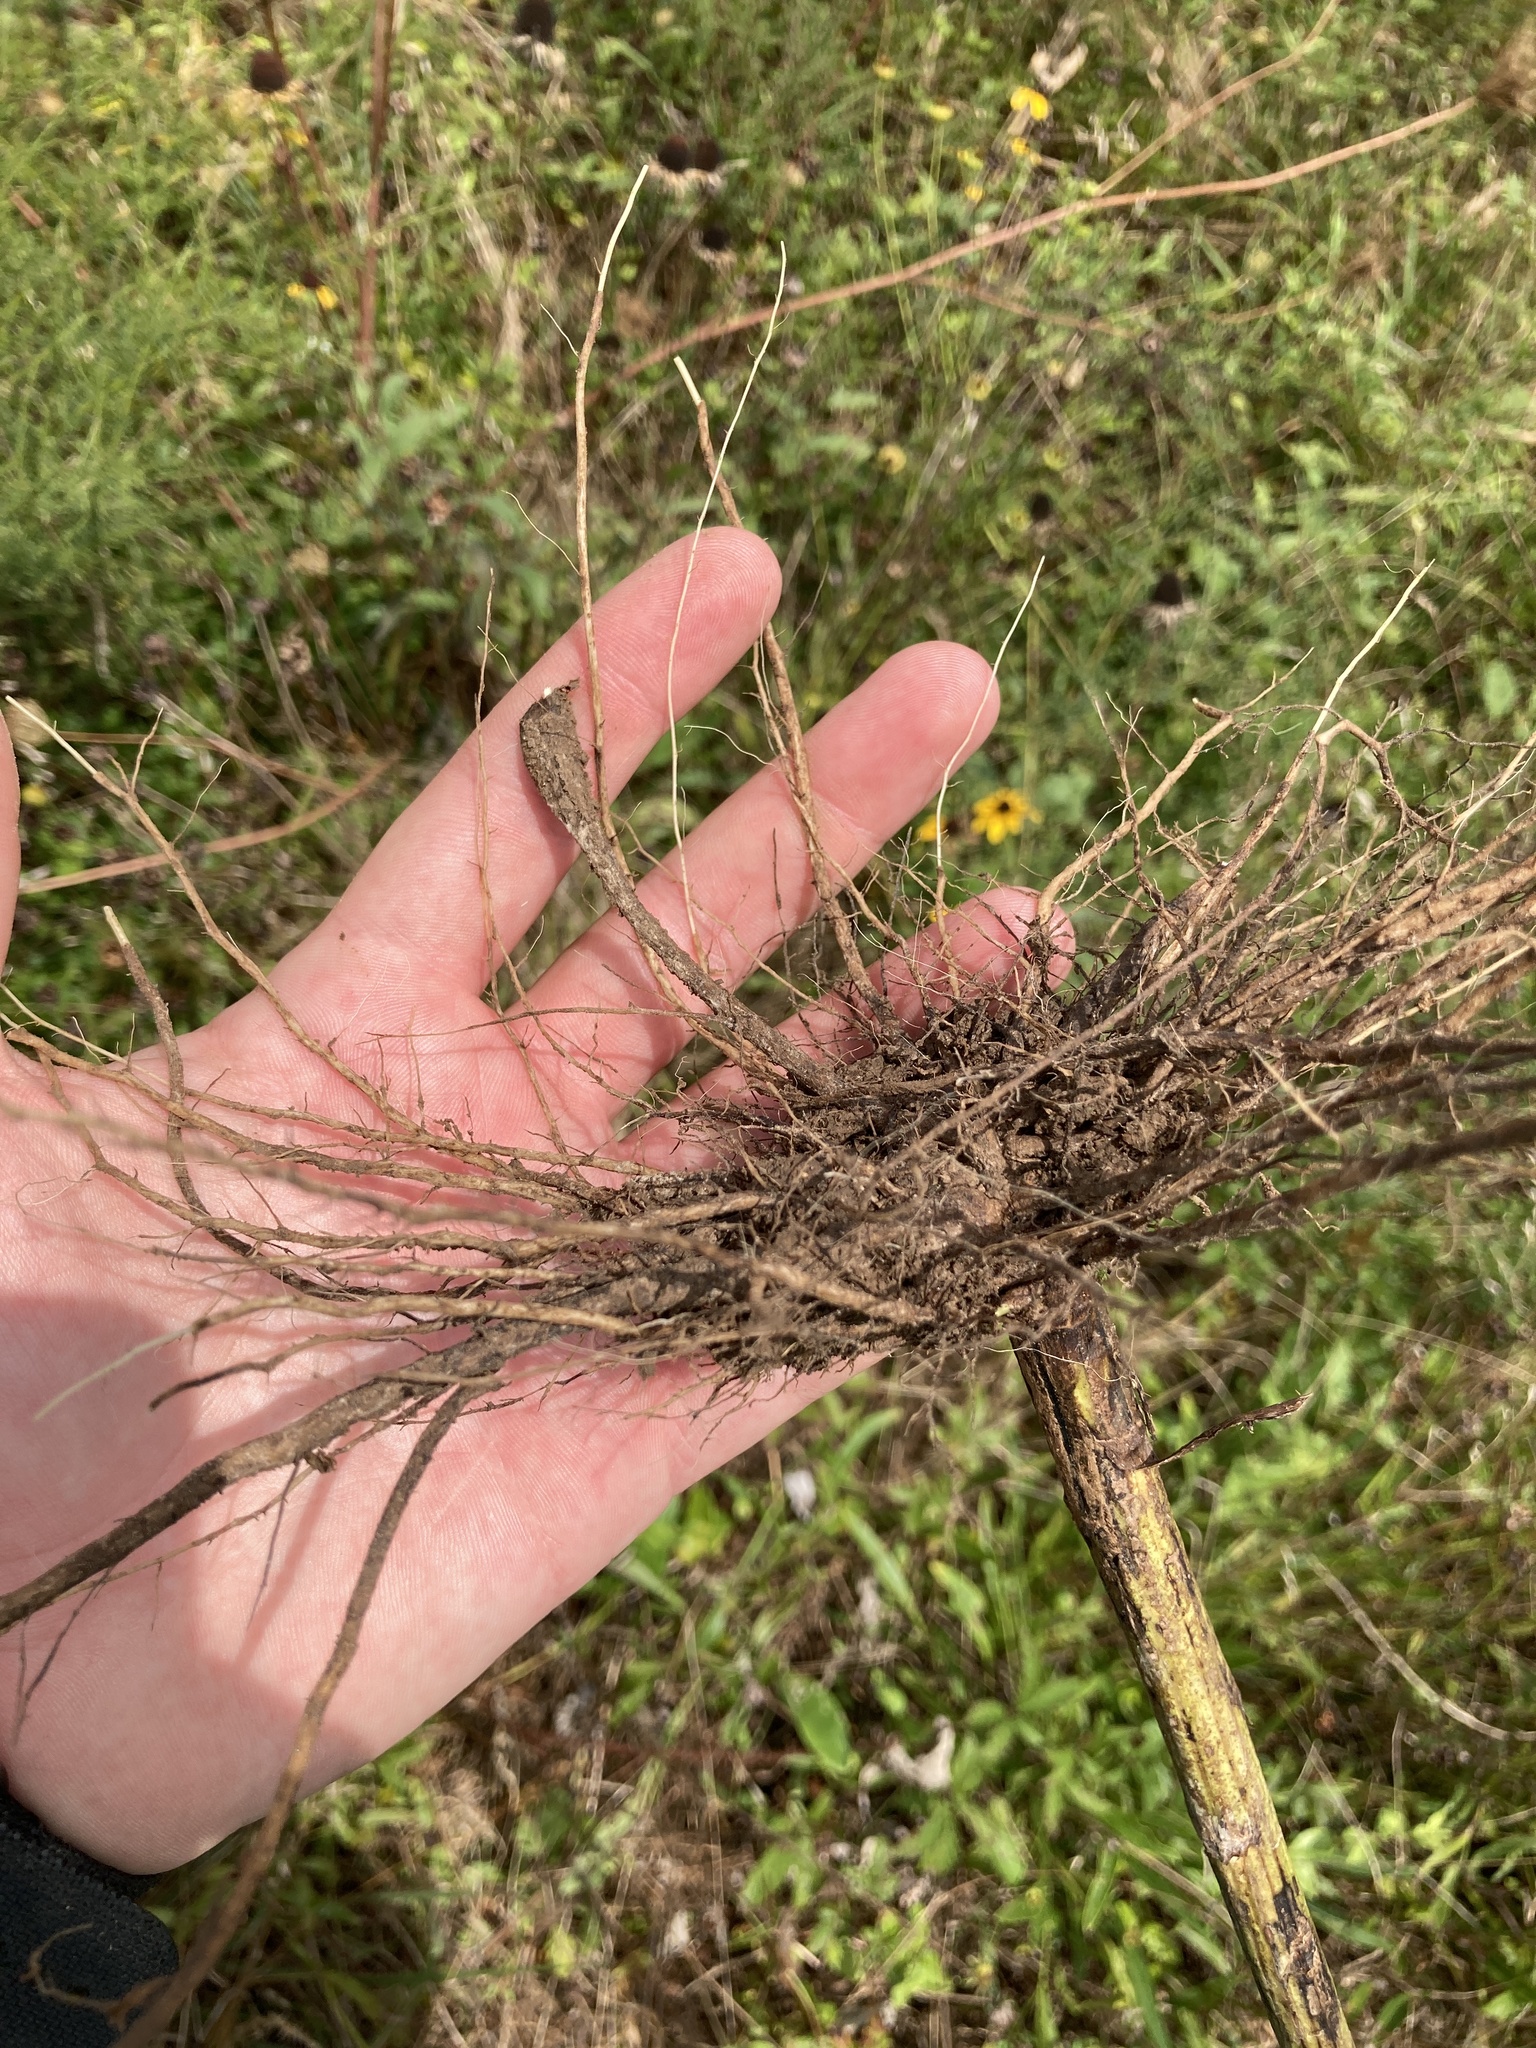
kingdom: Plantae
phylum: Tracheophyta
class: Magnoliopsida
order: Asterales
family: Asteraceae
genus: Cirsium
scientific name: Cirsium engelmannii
